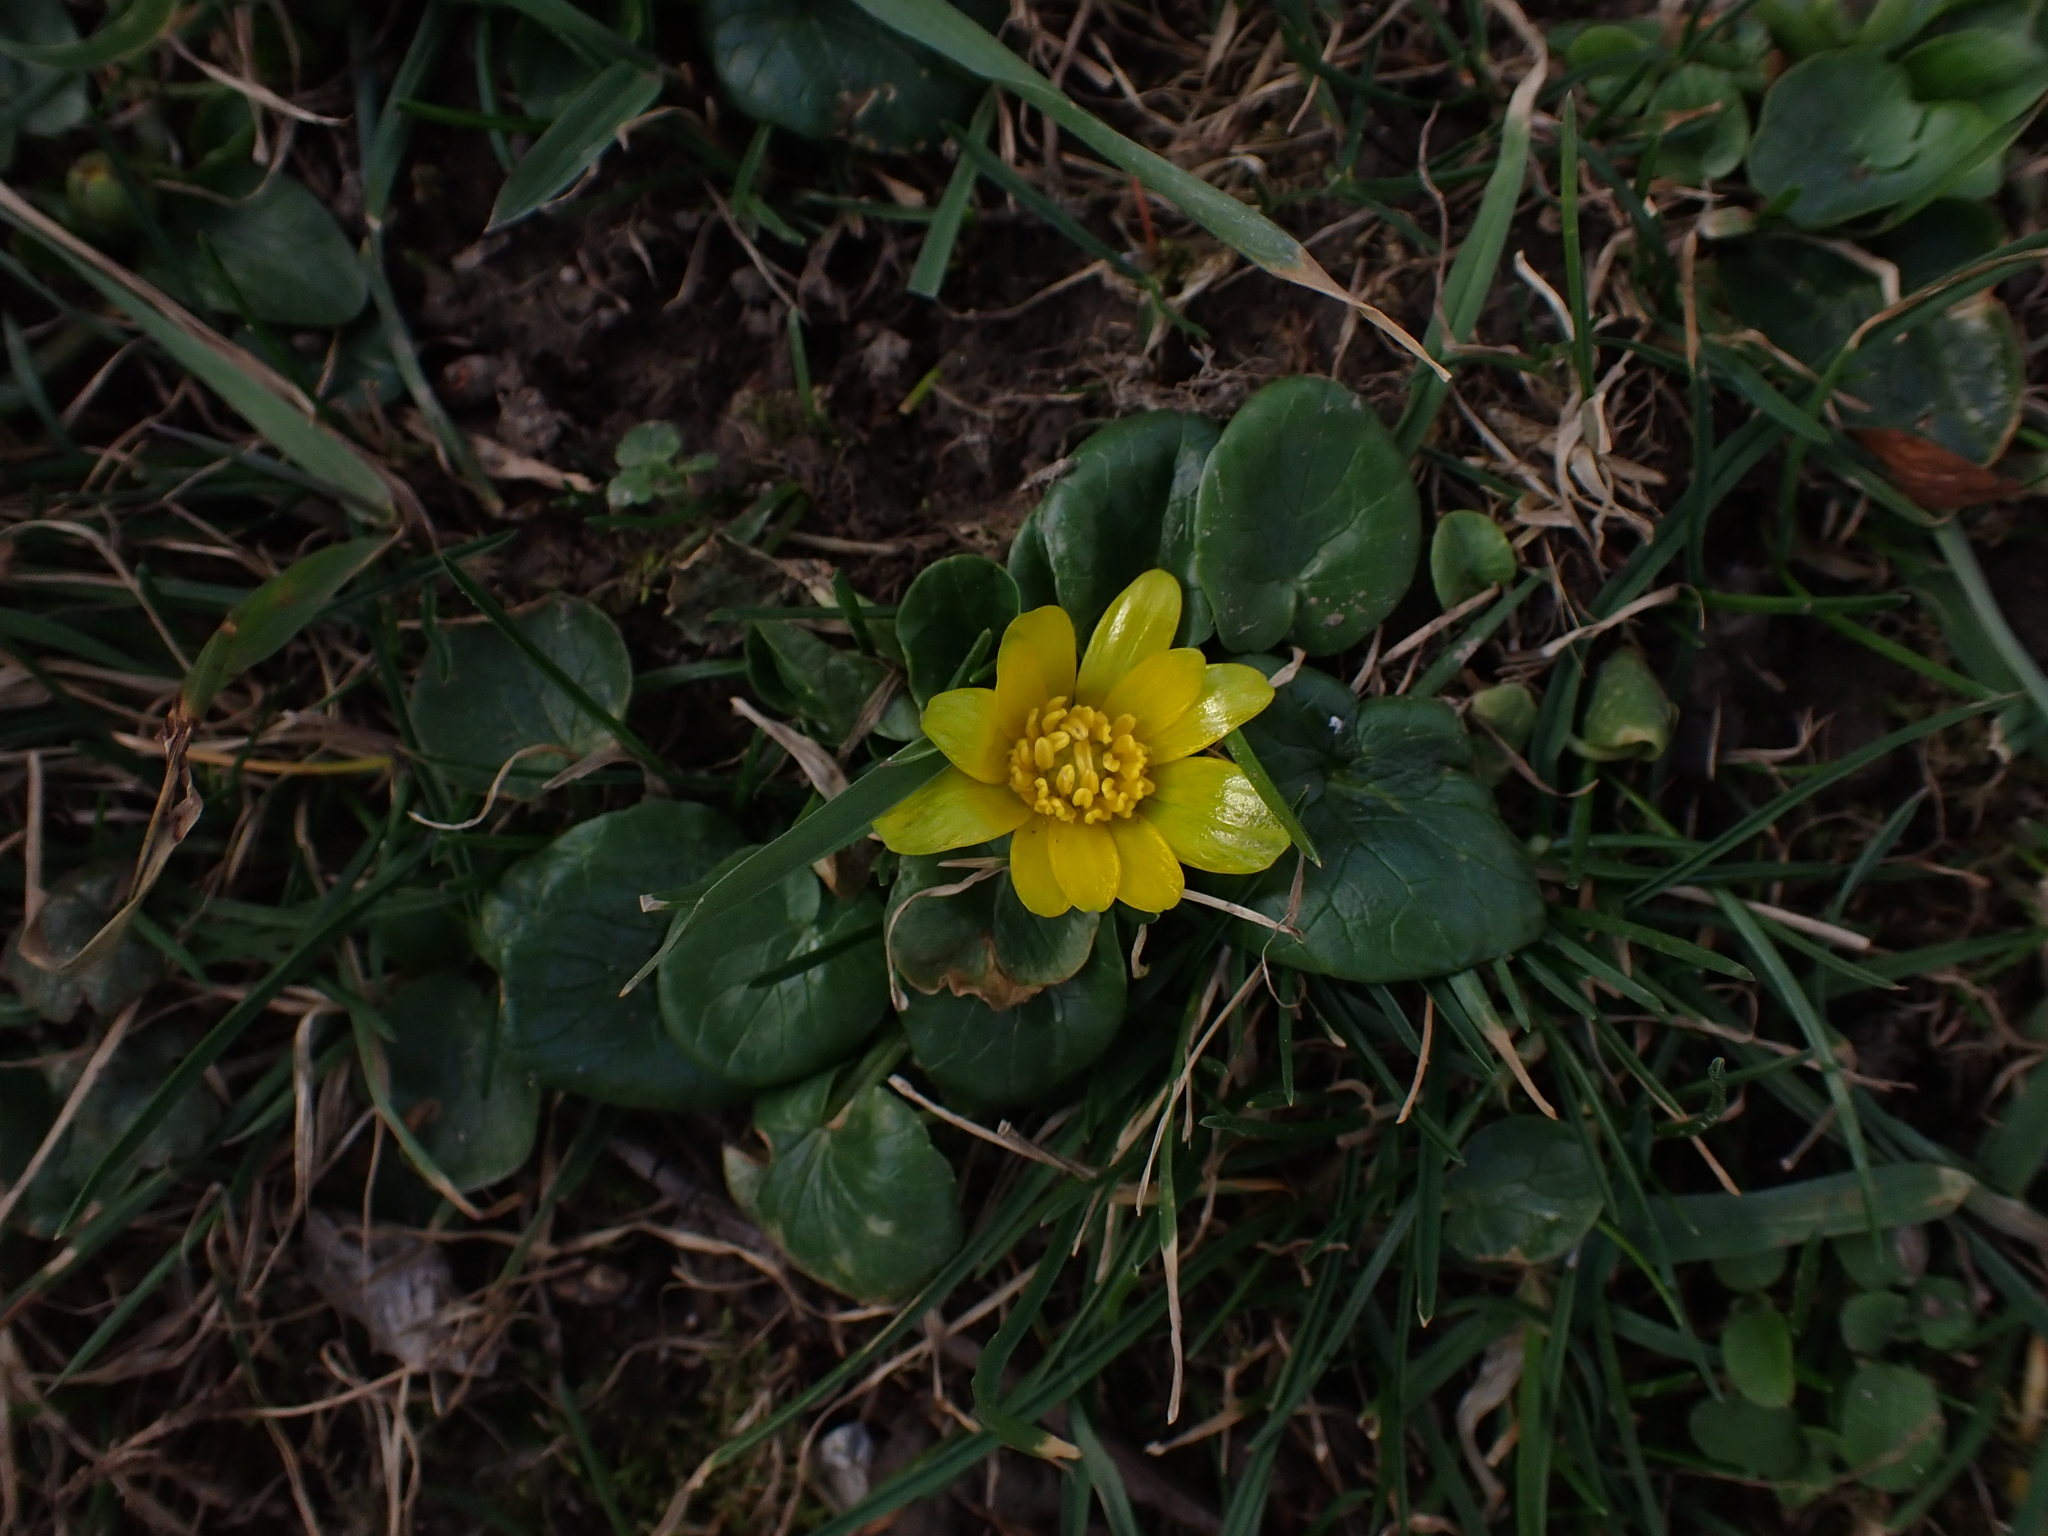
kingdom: Plantae
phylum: Tracheophyta
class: Magnoliopsida
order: Ranunculales
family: Ranunculaceae
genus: Ficaria
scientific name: Ficaria
